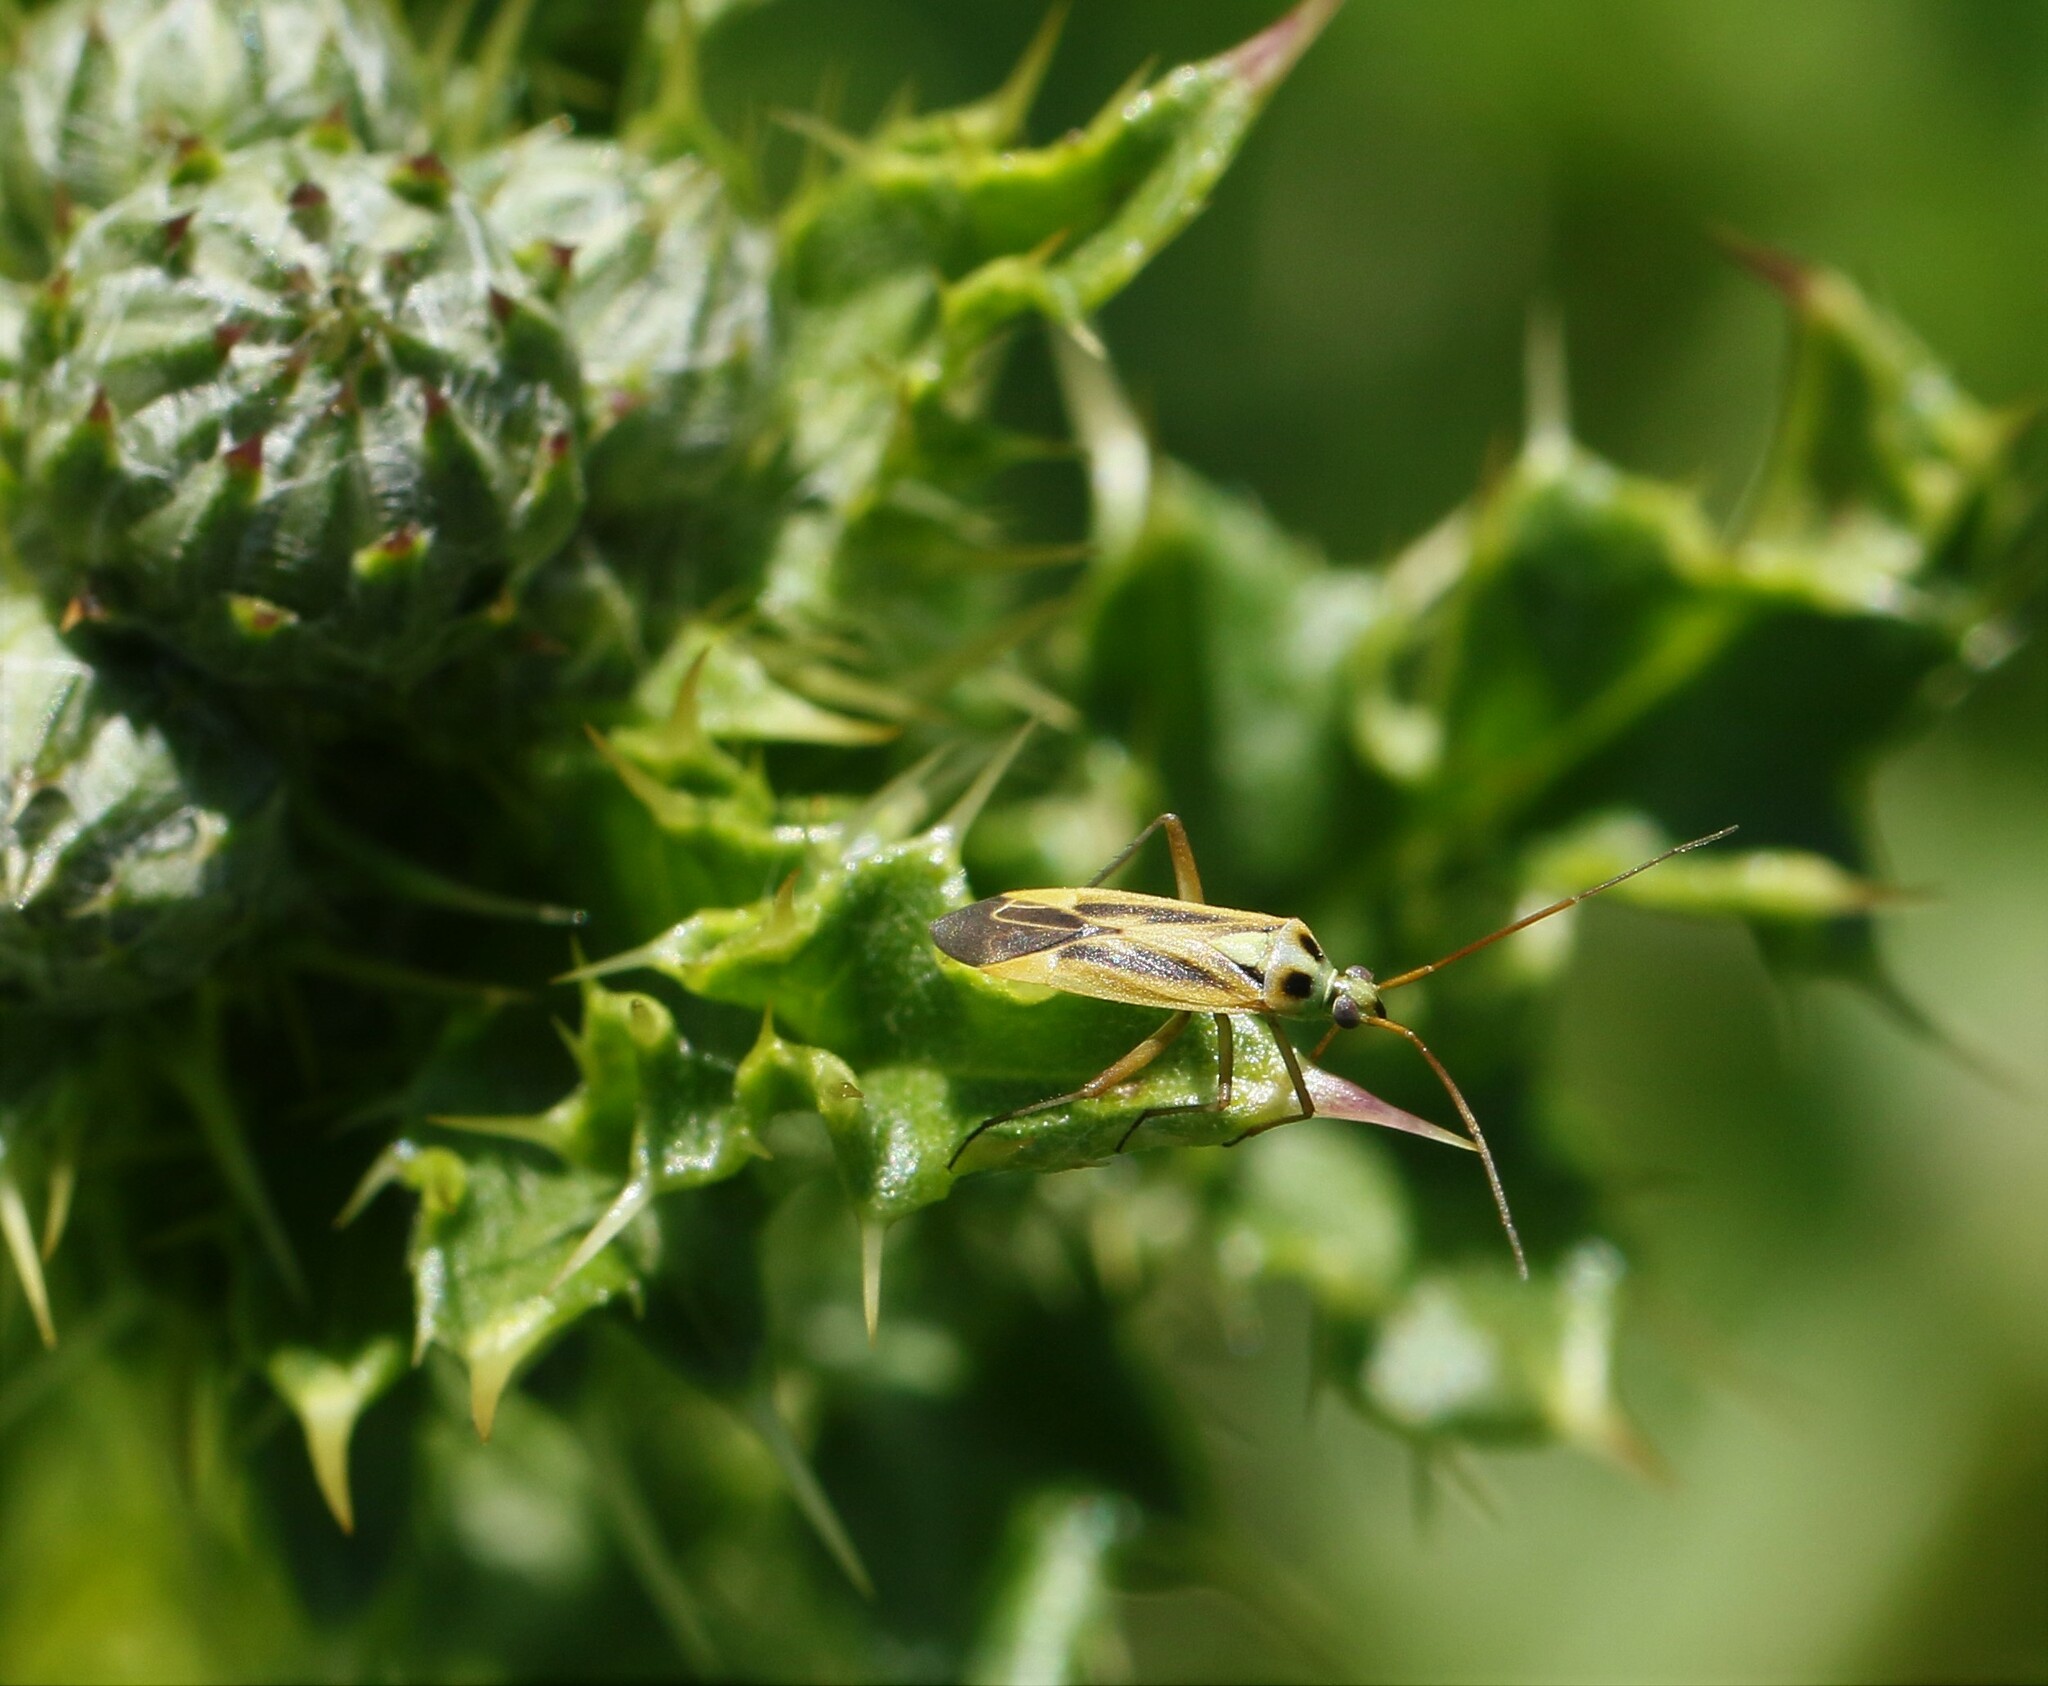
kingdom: Animalia
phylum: Arthropoda
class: Insecta
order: Hemiptera
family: Miridae
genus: Stenotus
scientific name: Stenotus binotatus
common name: Plant bug
